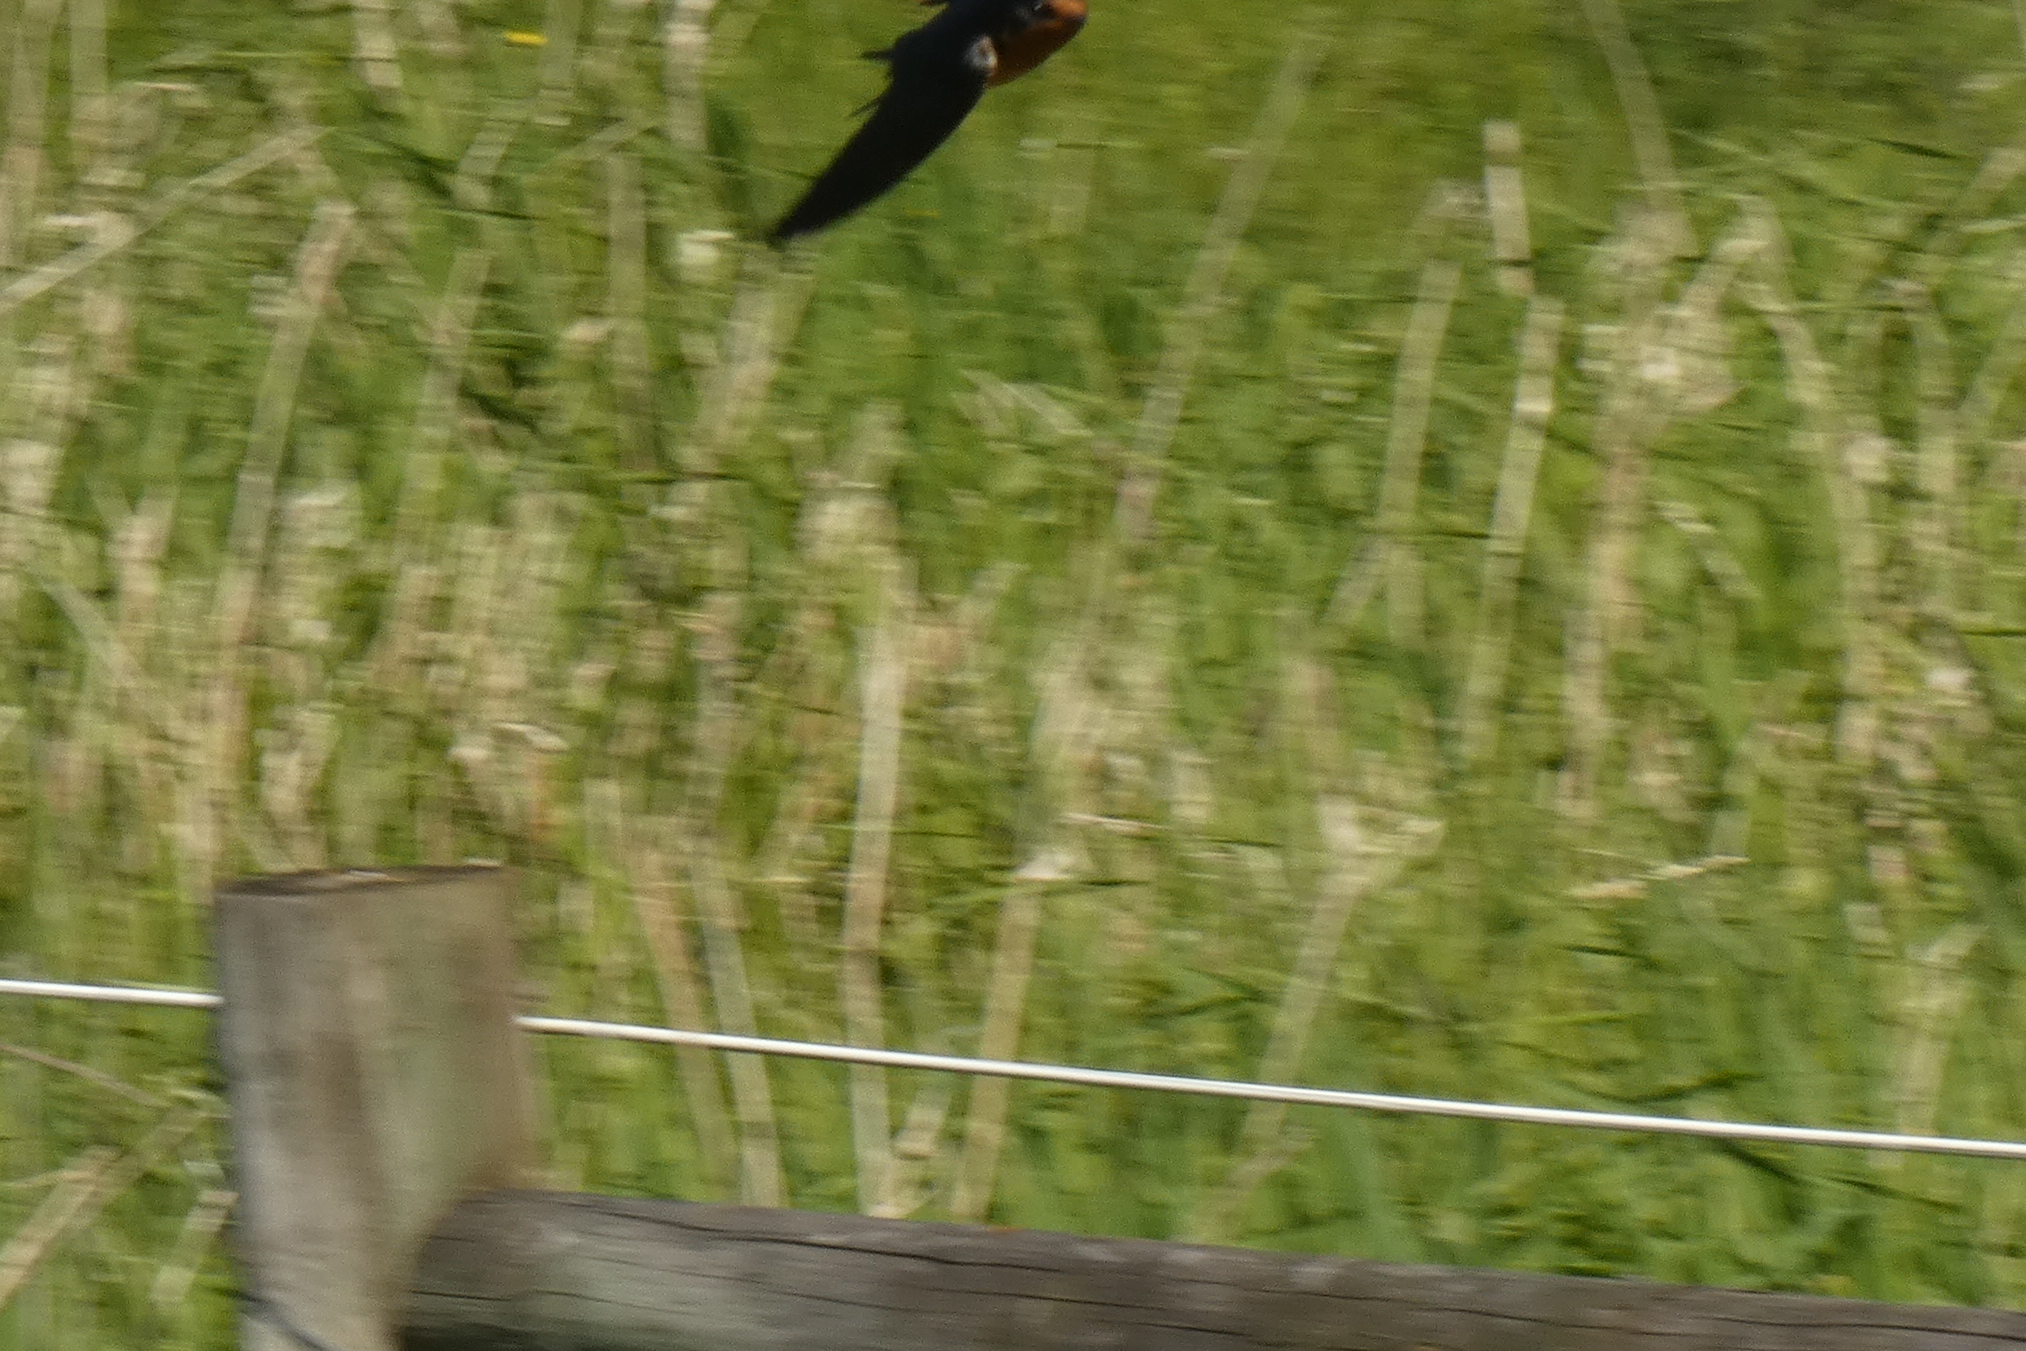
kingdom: Animalia
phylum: Chordata
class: Aves
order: Passeriformes
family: Hirundinidae
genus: Hirundo
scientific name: Hirundo rustica
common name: Barn swallow
